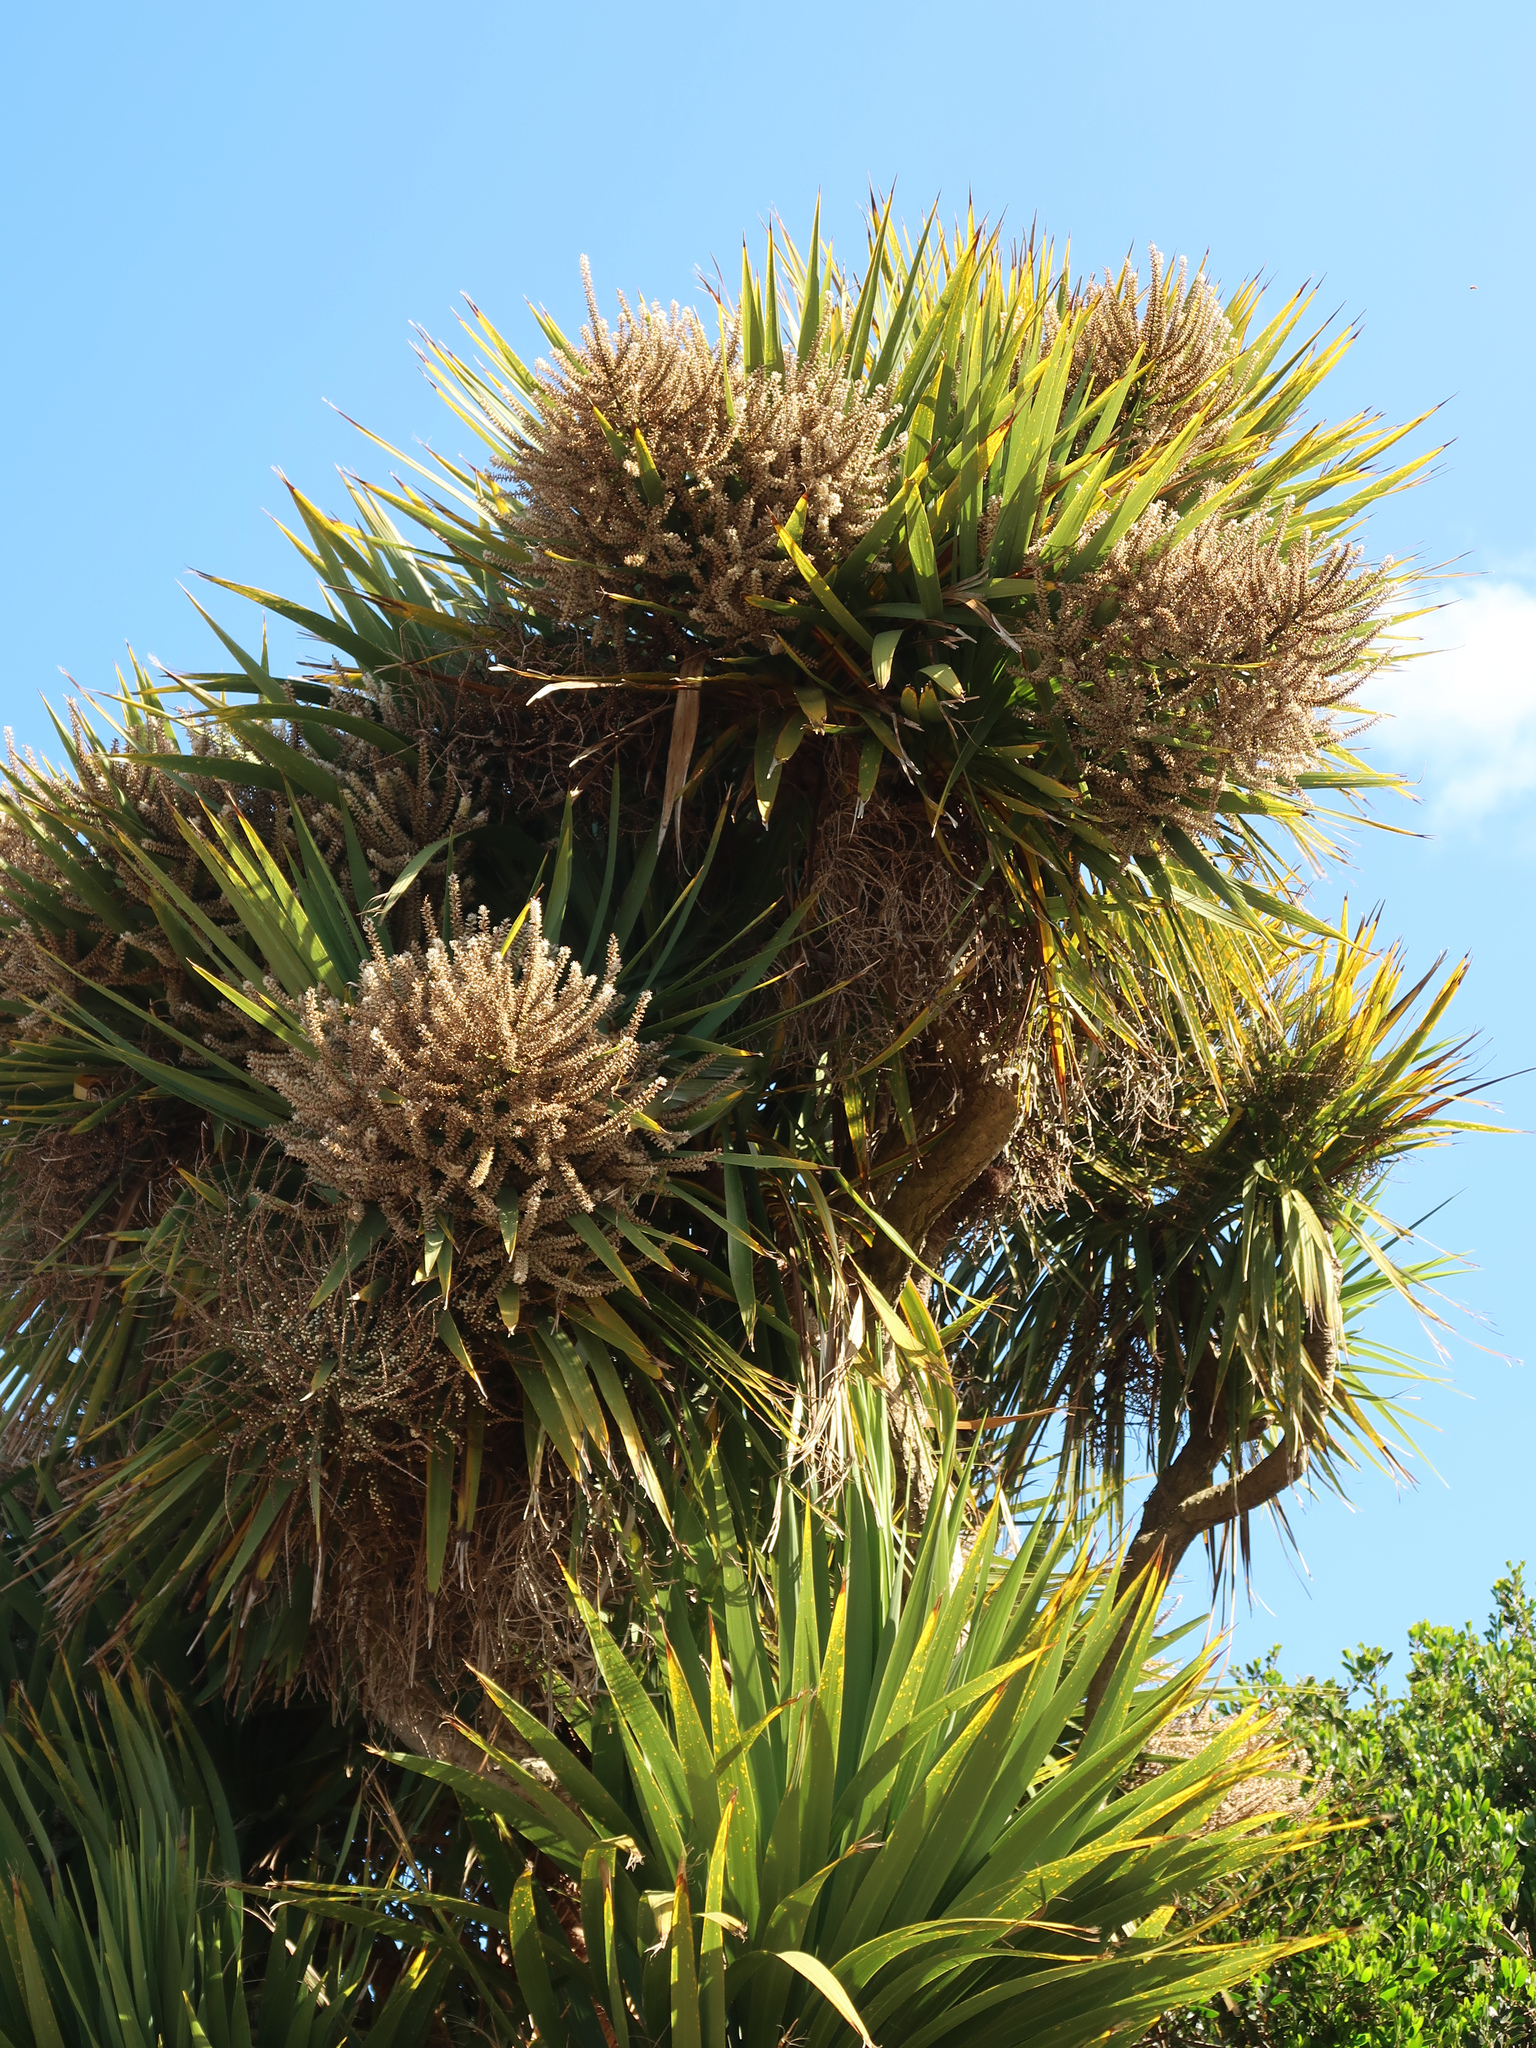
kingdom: Plantae
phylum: Tracheophyta
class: Liliopsida
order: Asparagales
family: Asparagaceae
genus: Cordyline
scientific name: Cordyline australis
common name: Cabbage-palm
